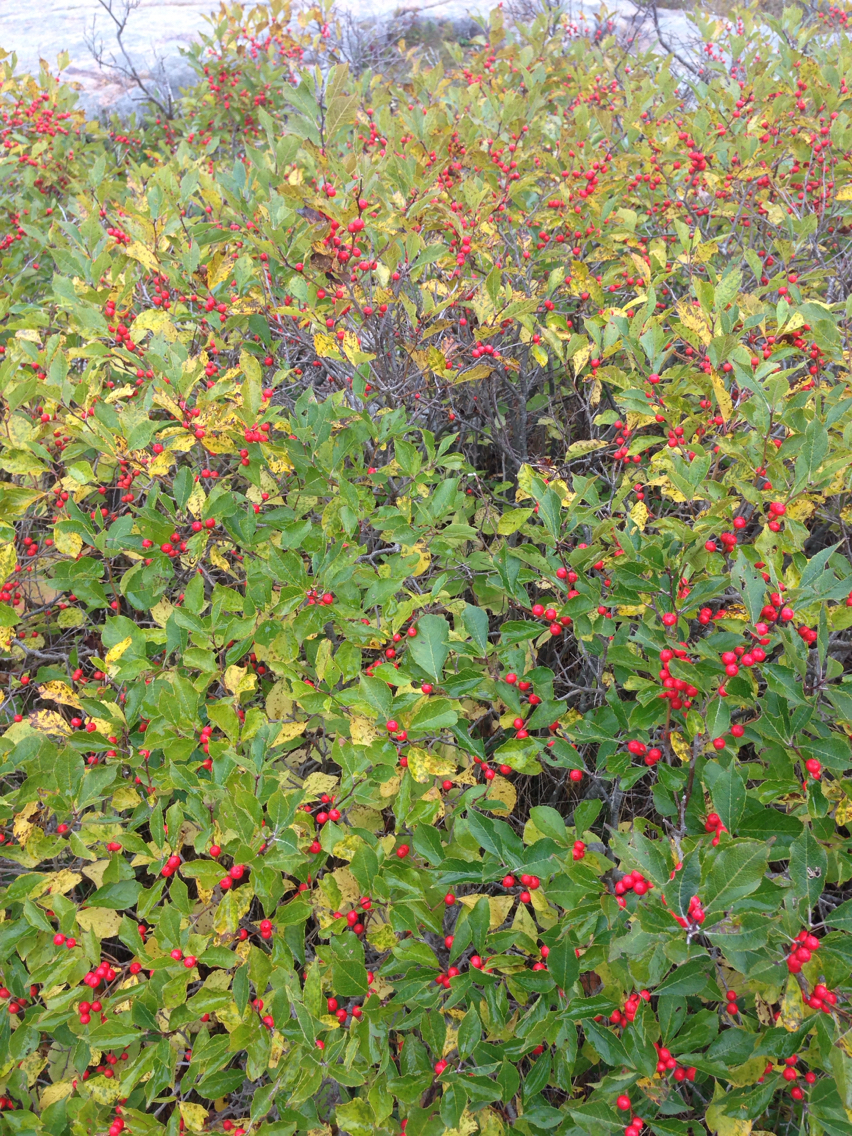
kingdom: Plantae
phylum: Tracheophyta
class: Magnoliopsida
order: Aquifoliales
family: Aquifoliaceae
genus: Ilex
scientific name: Ilex verticillata
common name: Virginia winterberry
